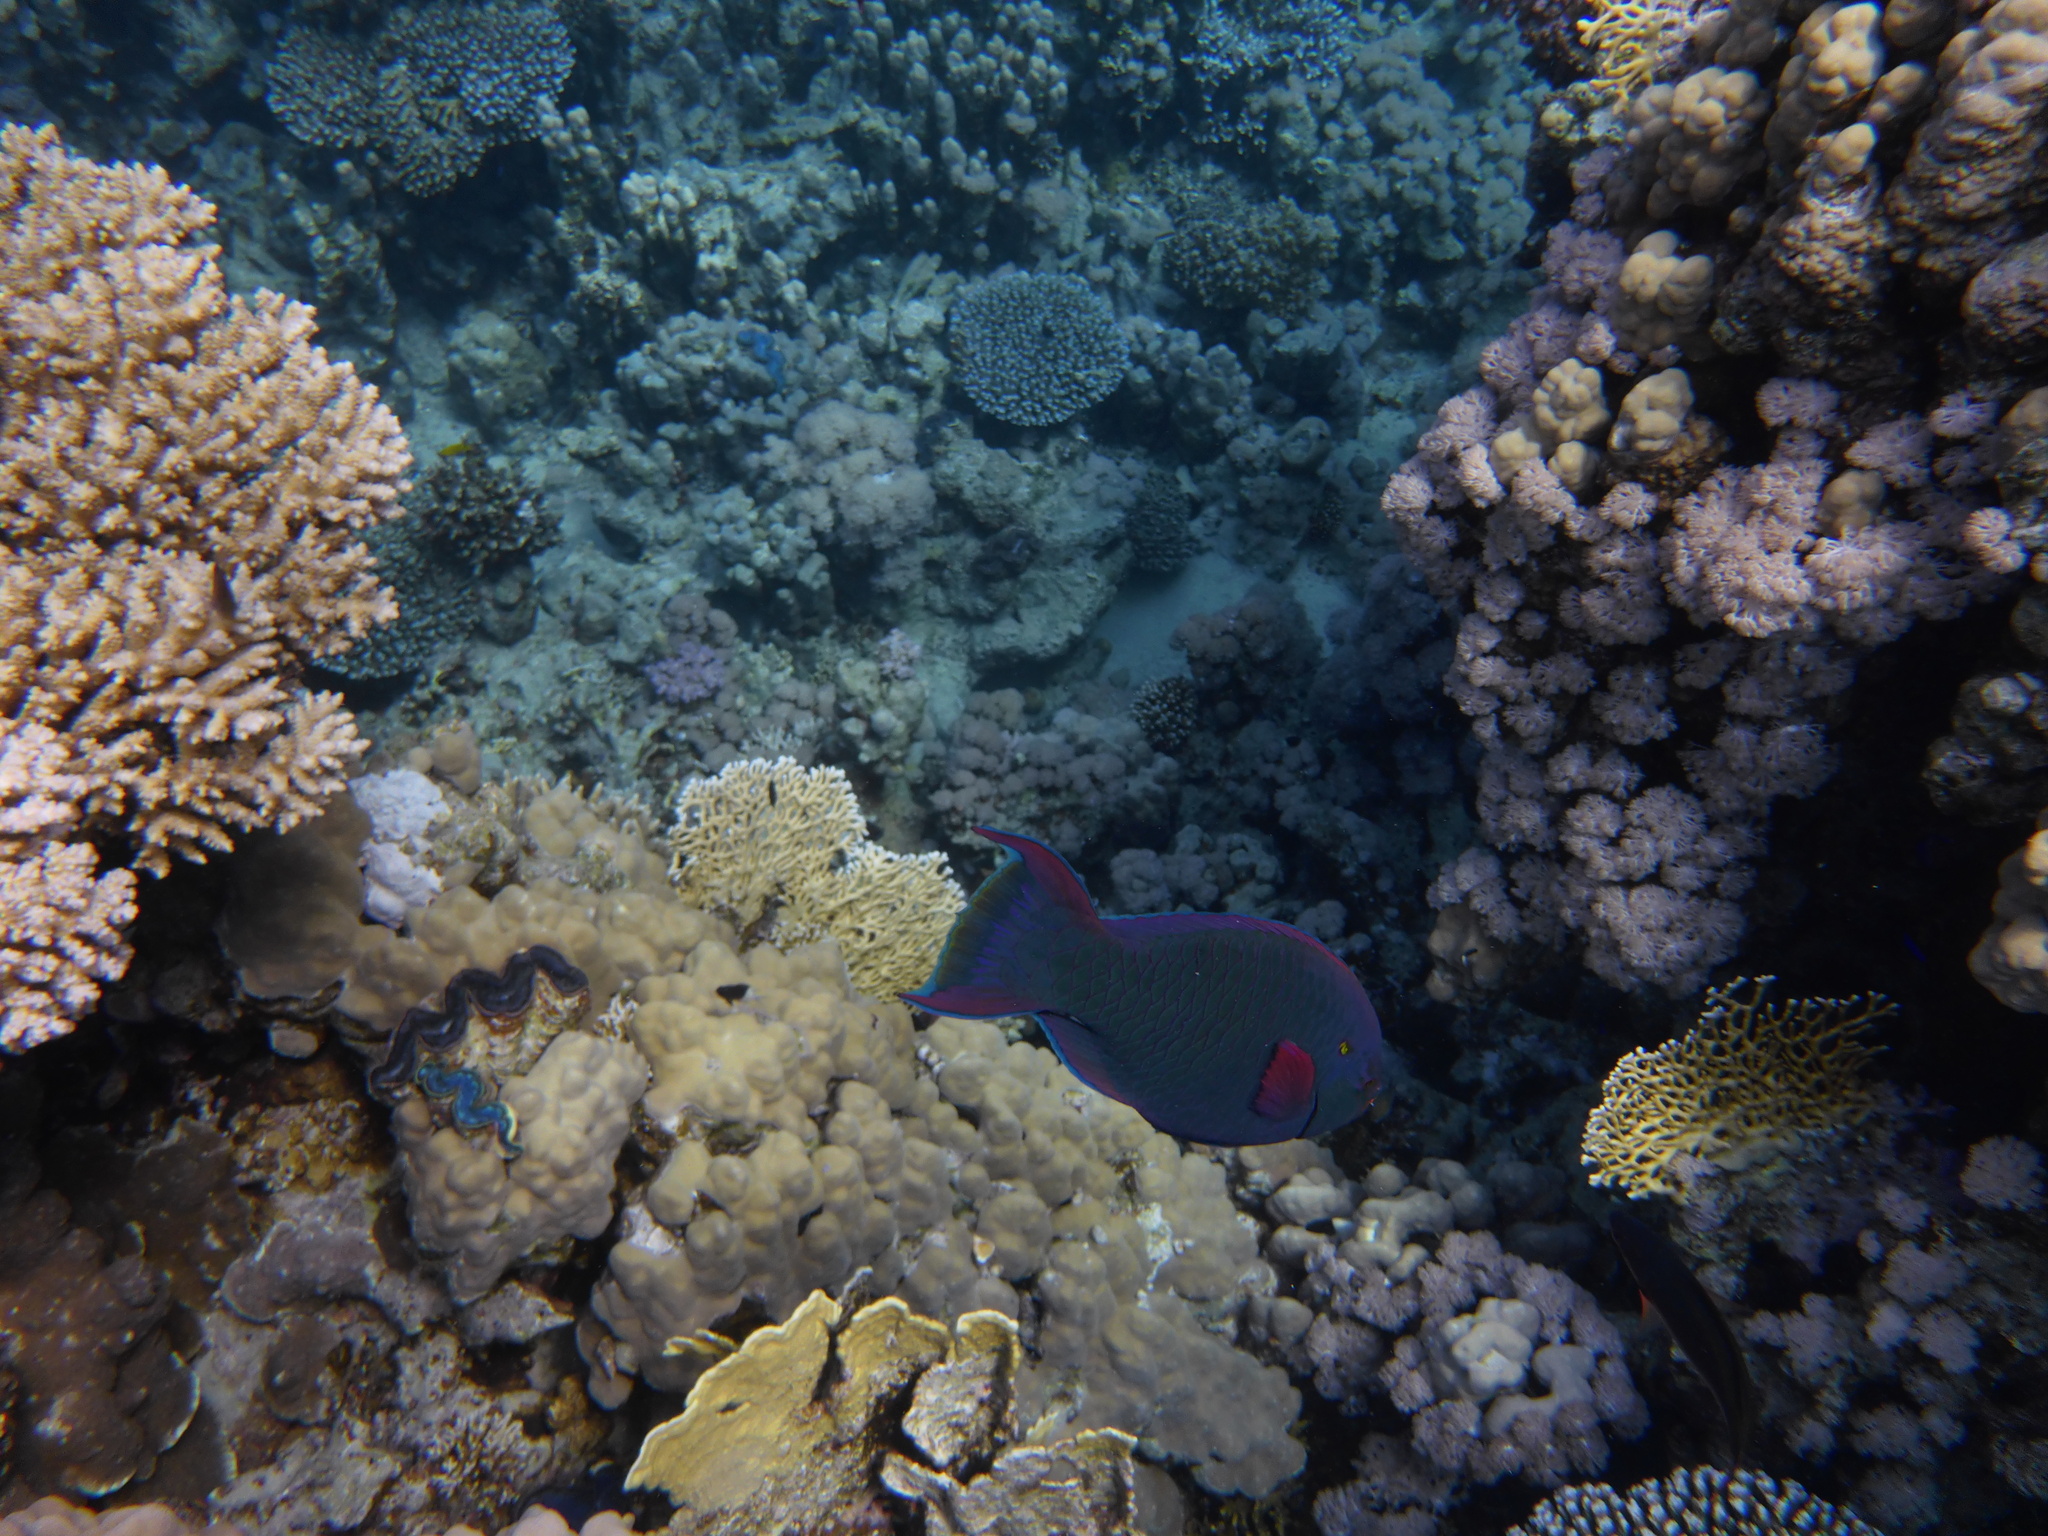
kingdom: Animalia
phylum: Chordata
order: Perciformes
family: Scaridae
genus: Scarus
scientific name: Scarus niger
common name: Dusky parrotfish
